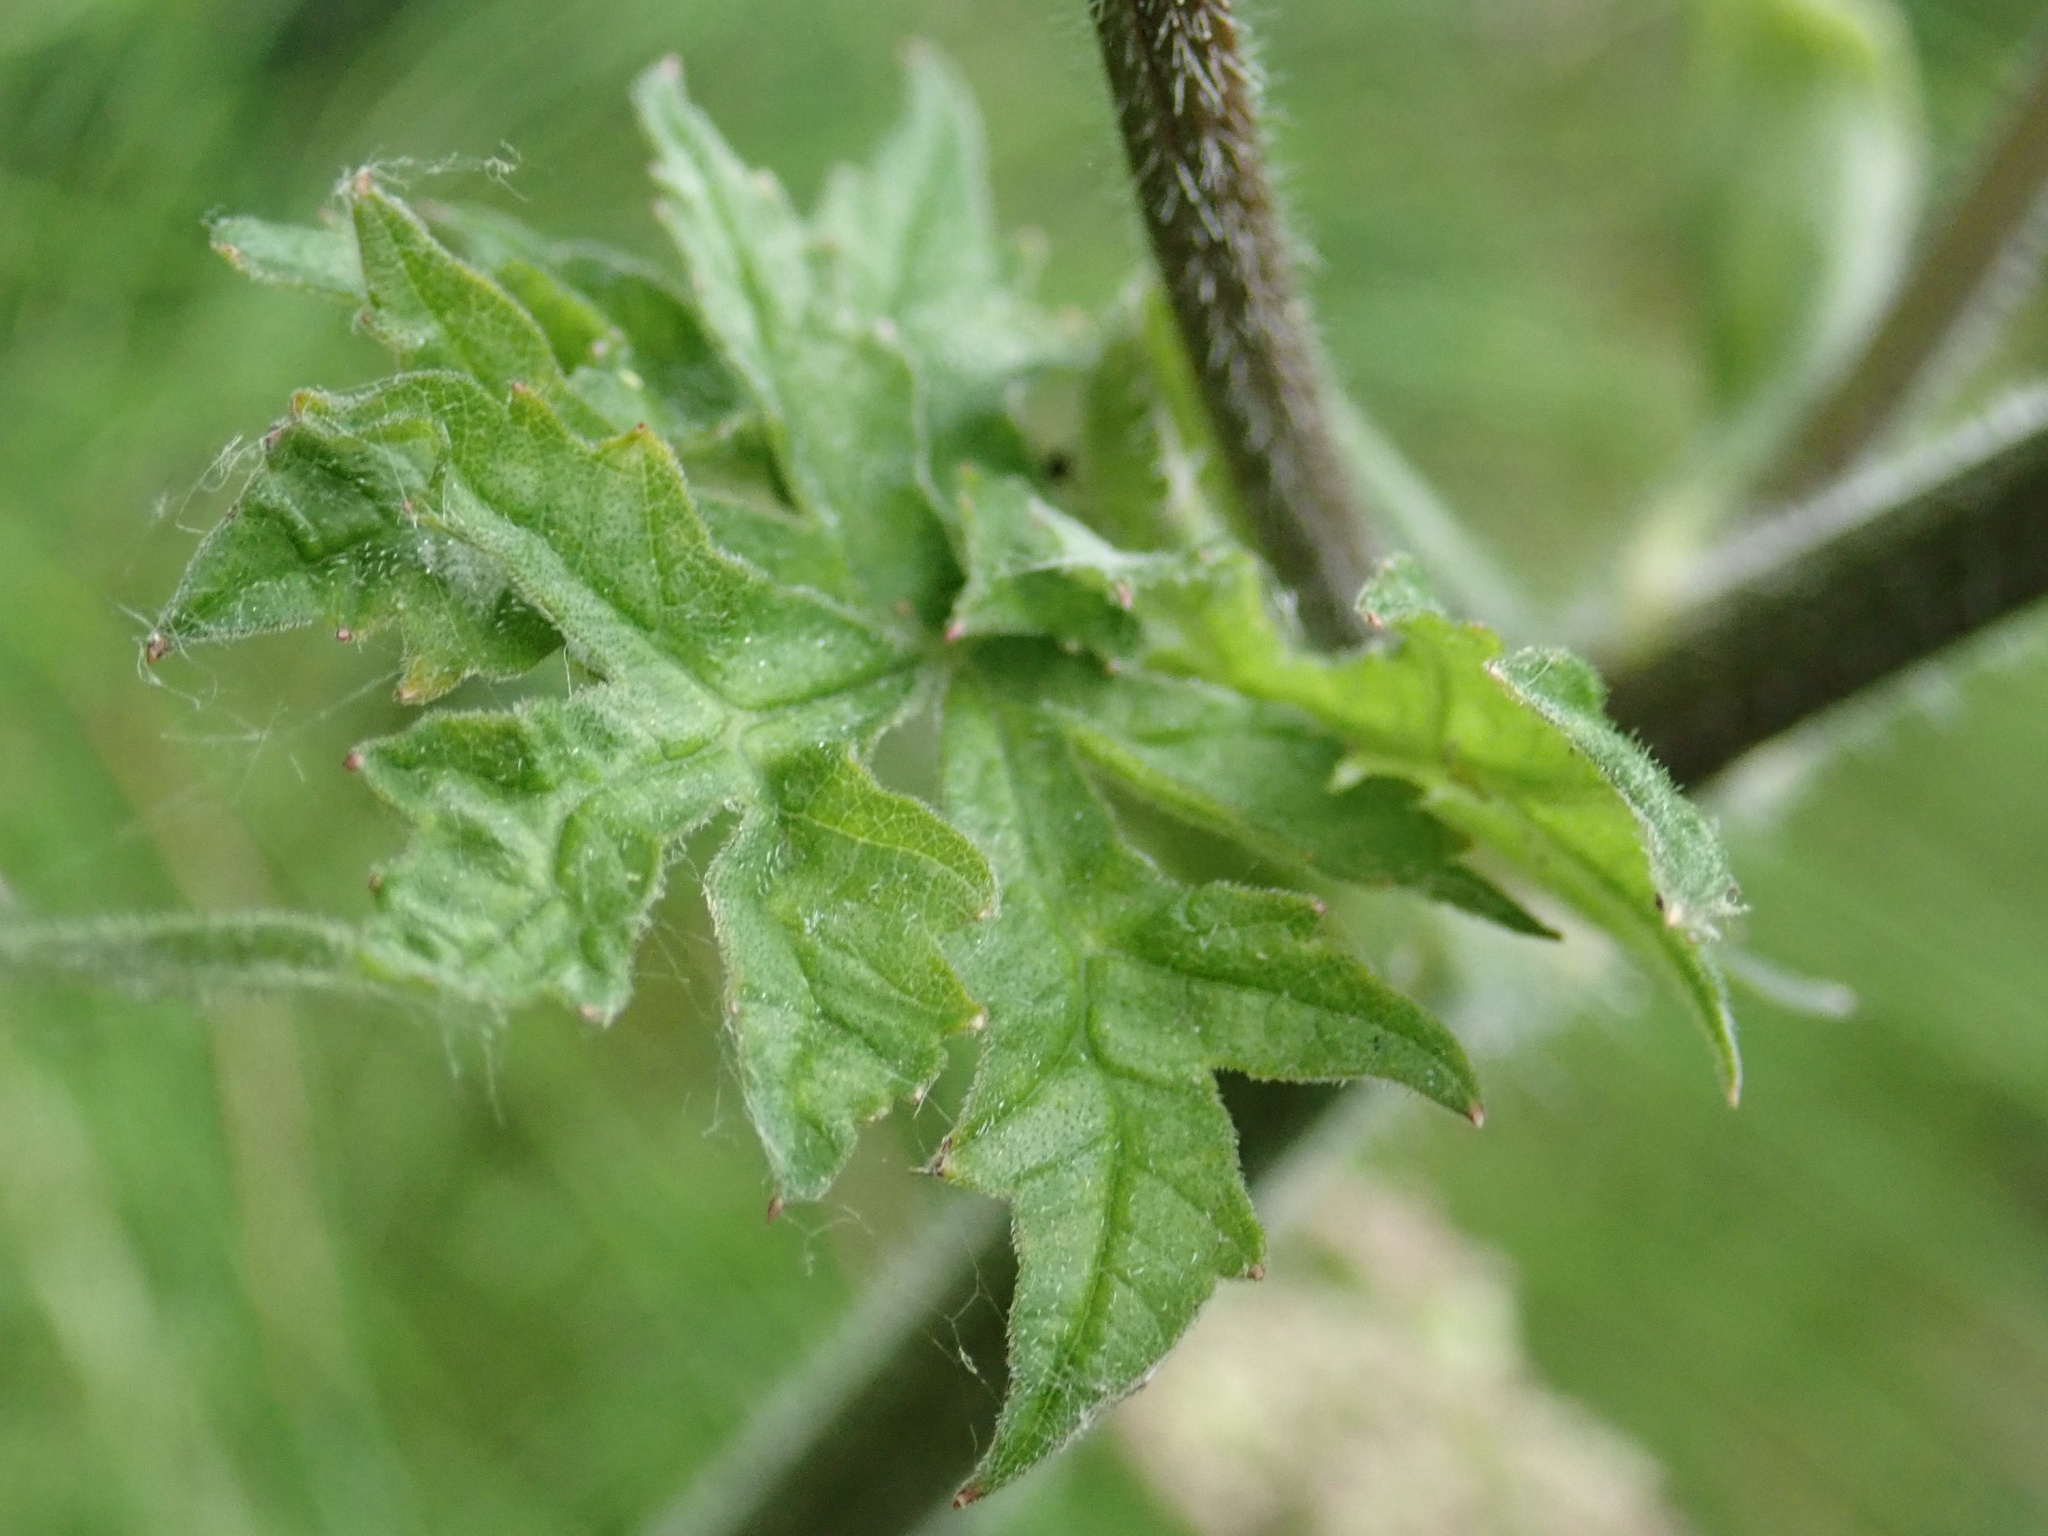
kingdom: Plantae
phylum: Tracheophyta
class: Magnoliopsida
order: Apiales
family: Apiaceae
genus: Heracleum
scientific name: Heracleum sphondylium
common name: Hogweed
